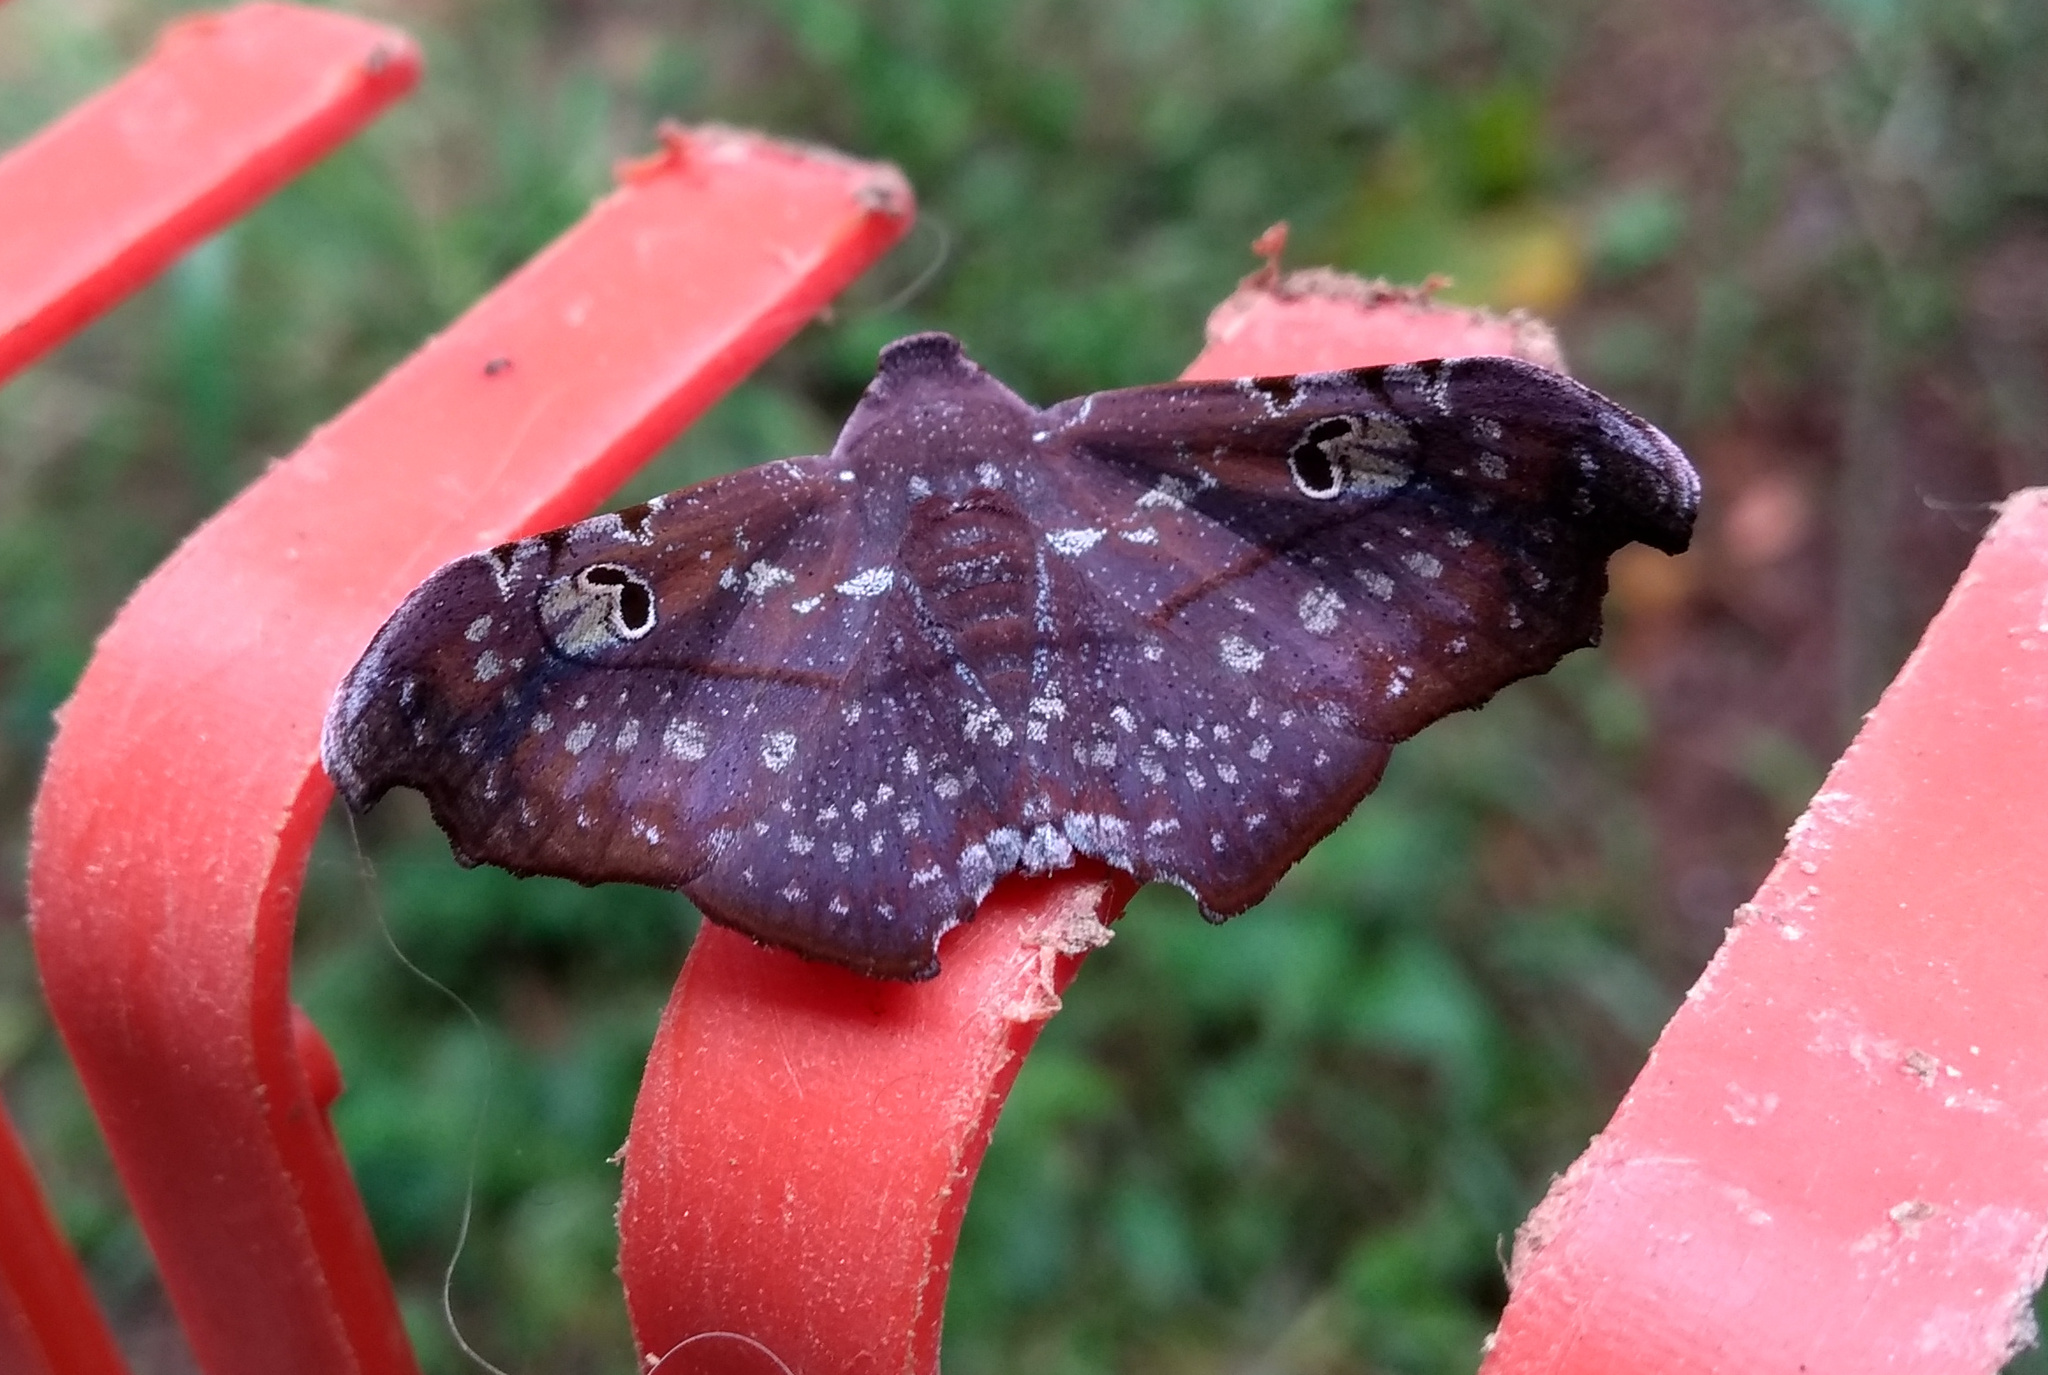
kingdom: Animalia
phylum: Arthropoda
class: Insecta
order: Lepidoptera
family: Erebidae
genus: Tautobriga
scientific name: Tautobriga euspila
